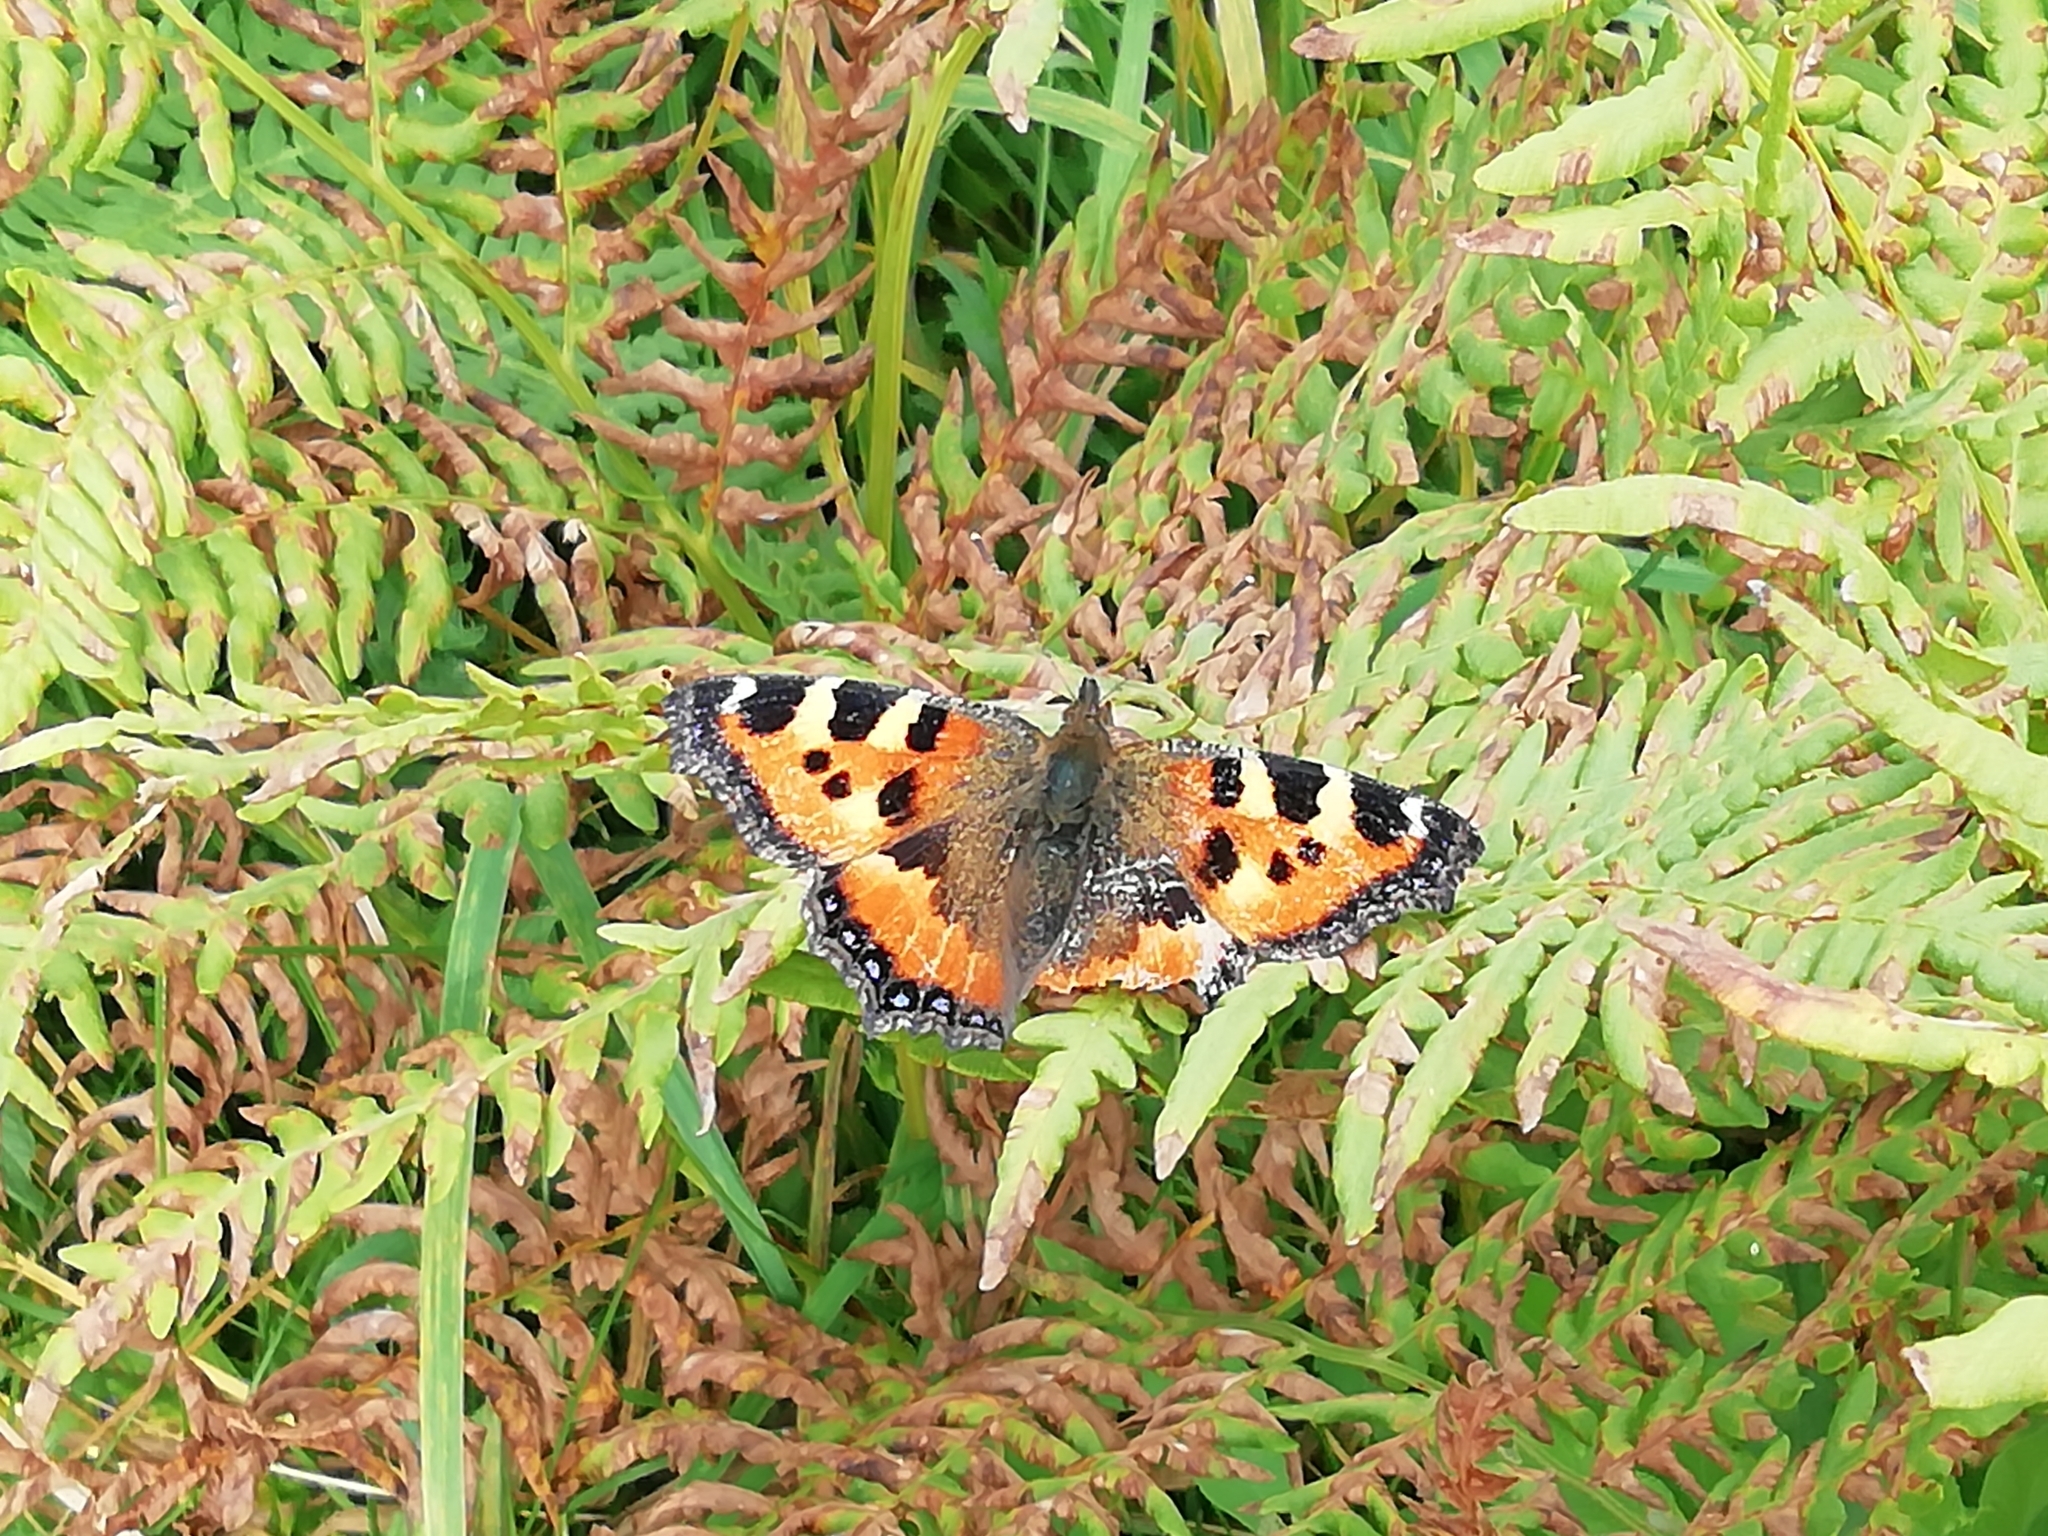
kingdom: Animalia
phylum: Arthropoda
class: Insecta
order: Lepidoptera
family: Nymphalidae
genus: Aglais
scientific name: Aglais urticae
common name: Small tortoiseshell
